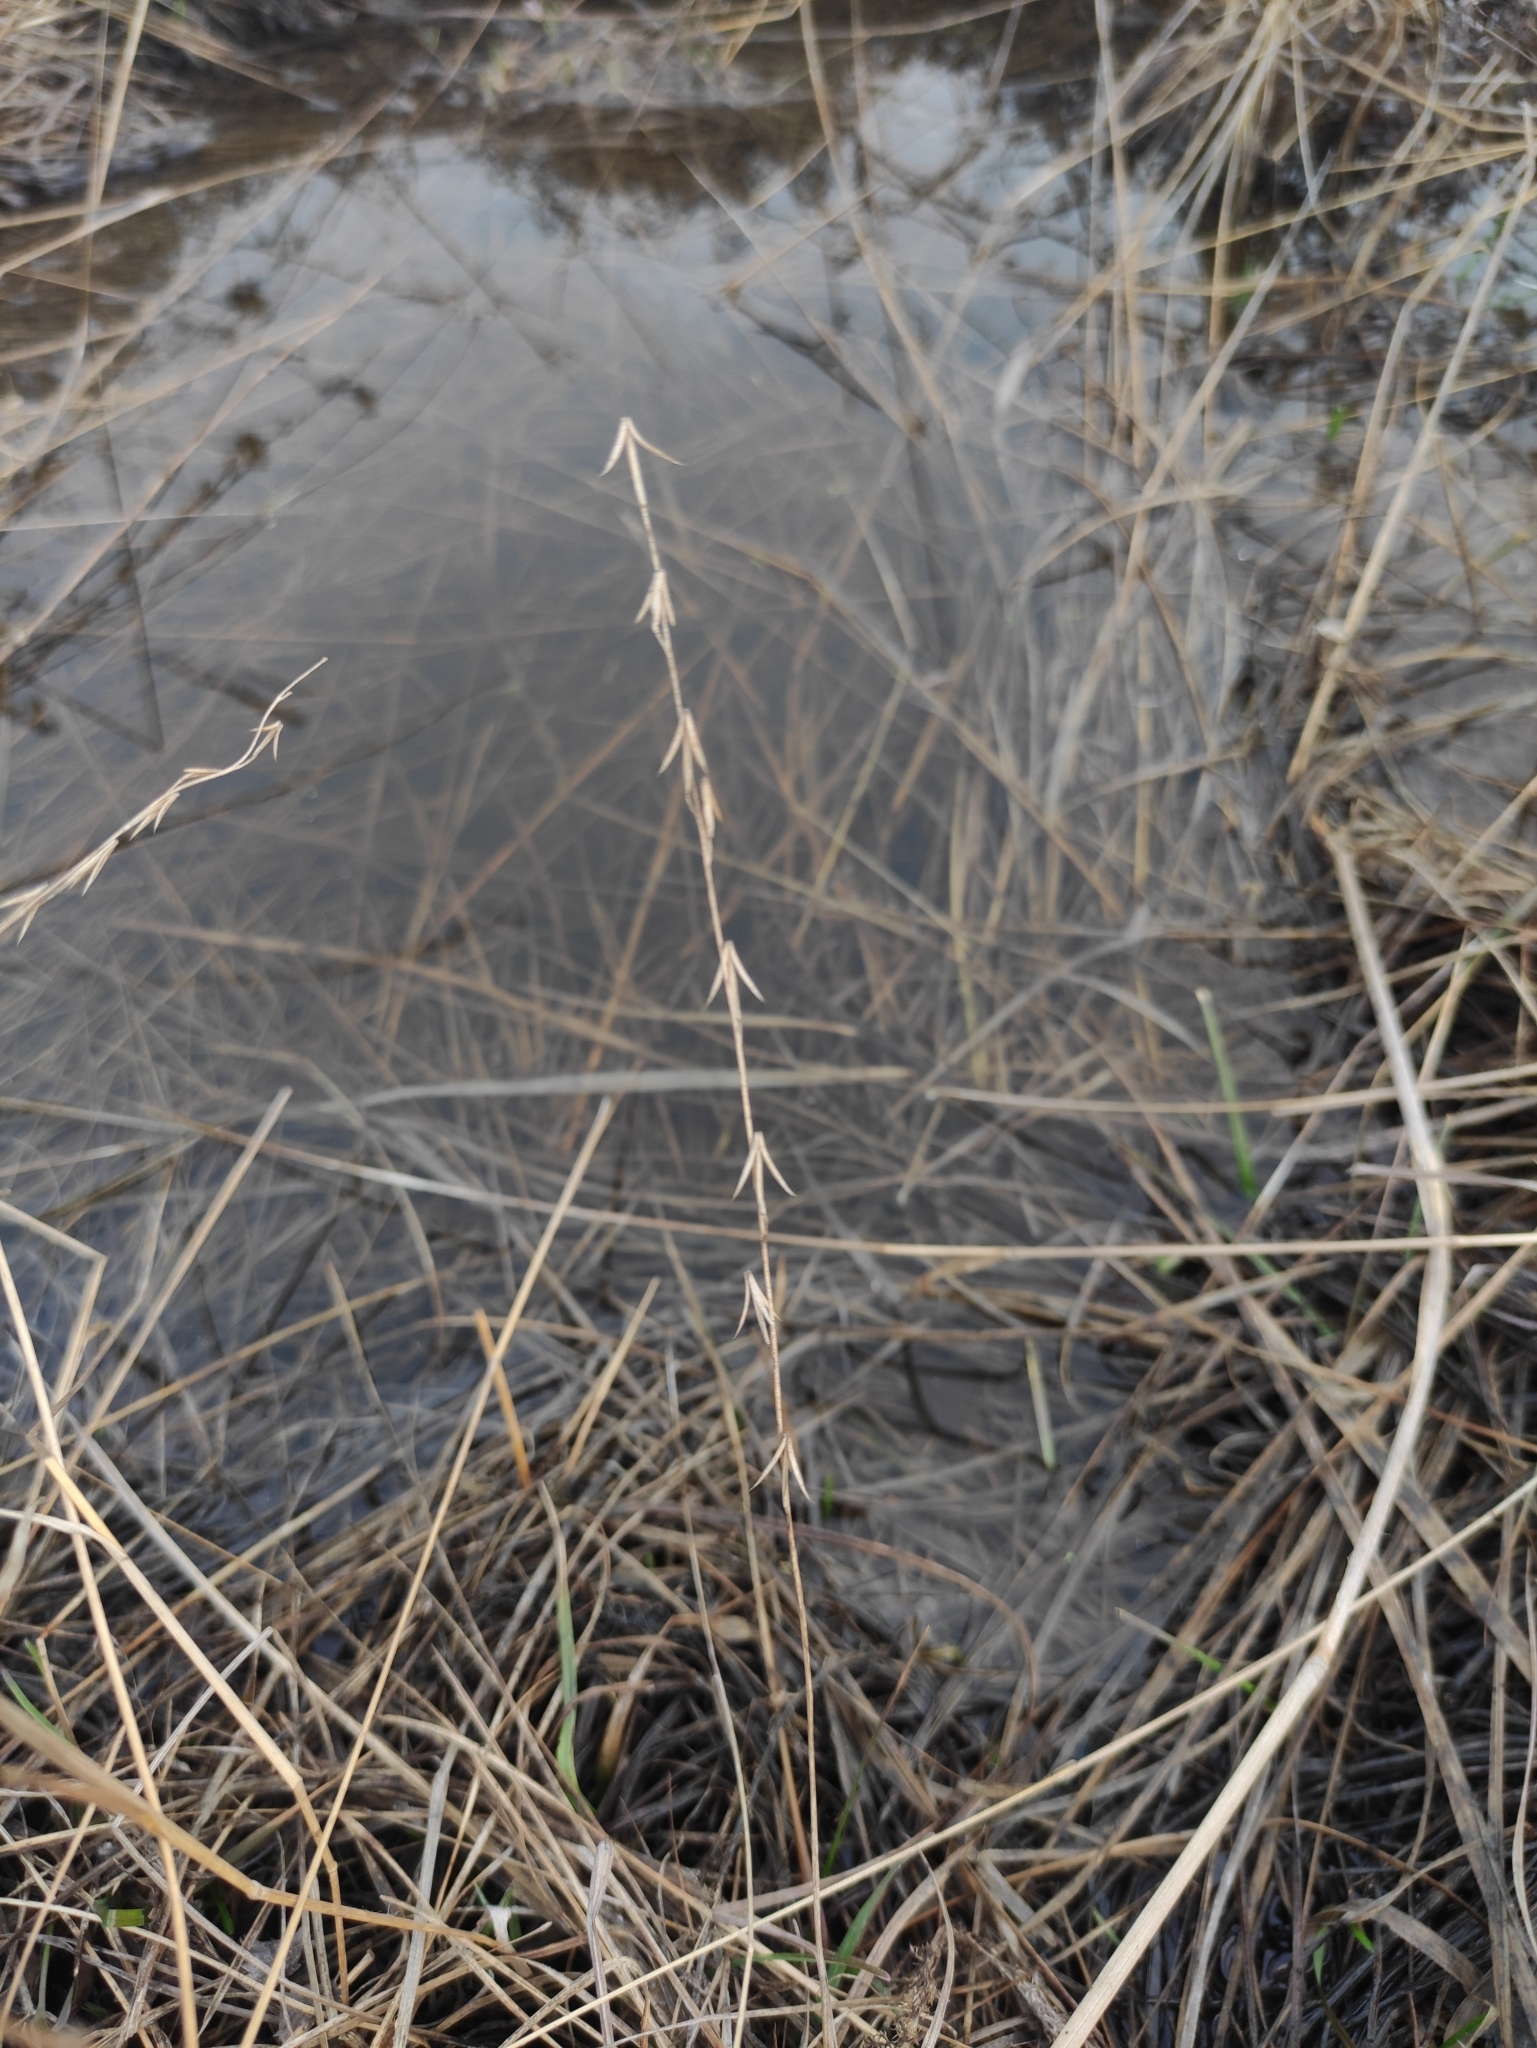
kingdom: Plantae
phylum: Tracheophyta
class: Liliopsida
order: Alismatales
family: Juncaginaceae
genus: Triglochin
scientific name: Triglochin palustris
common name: Marsh arrowgrass
